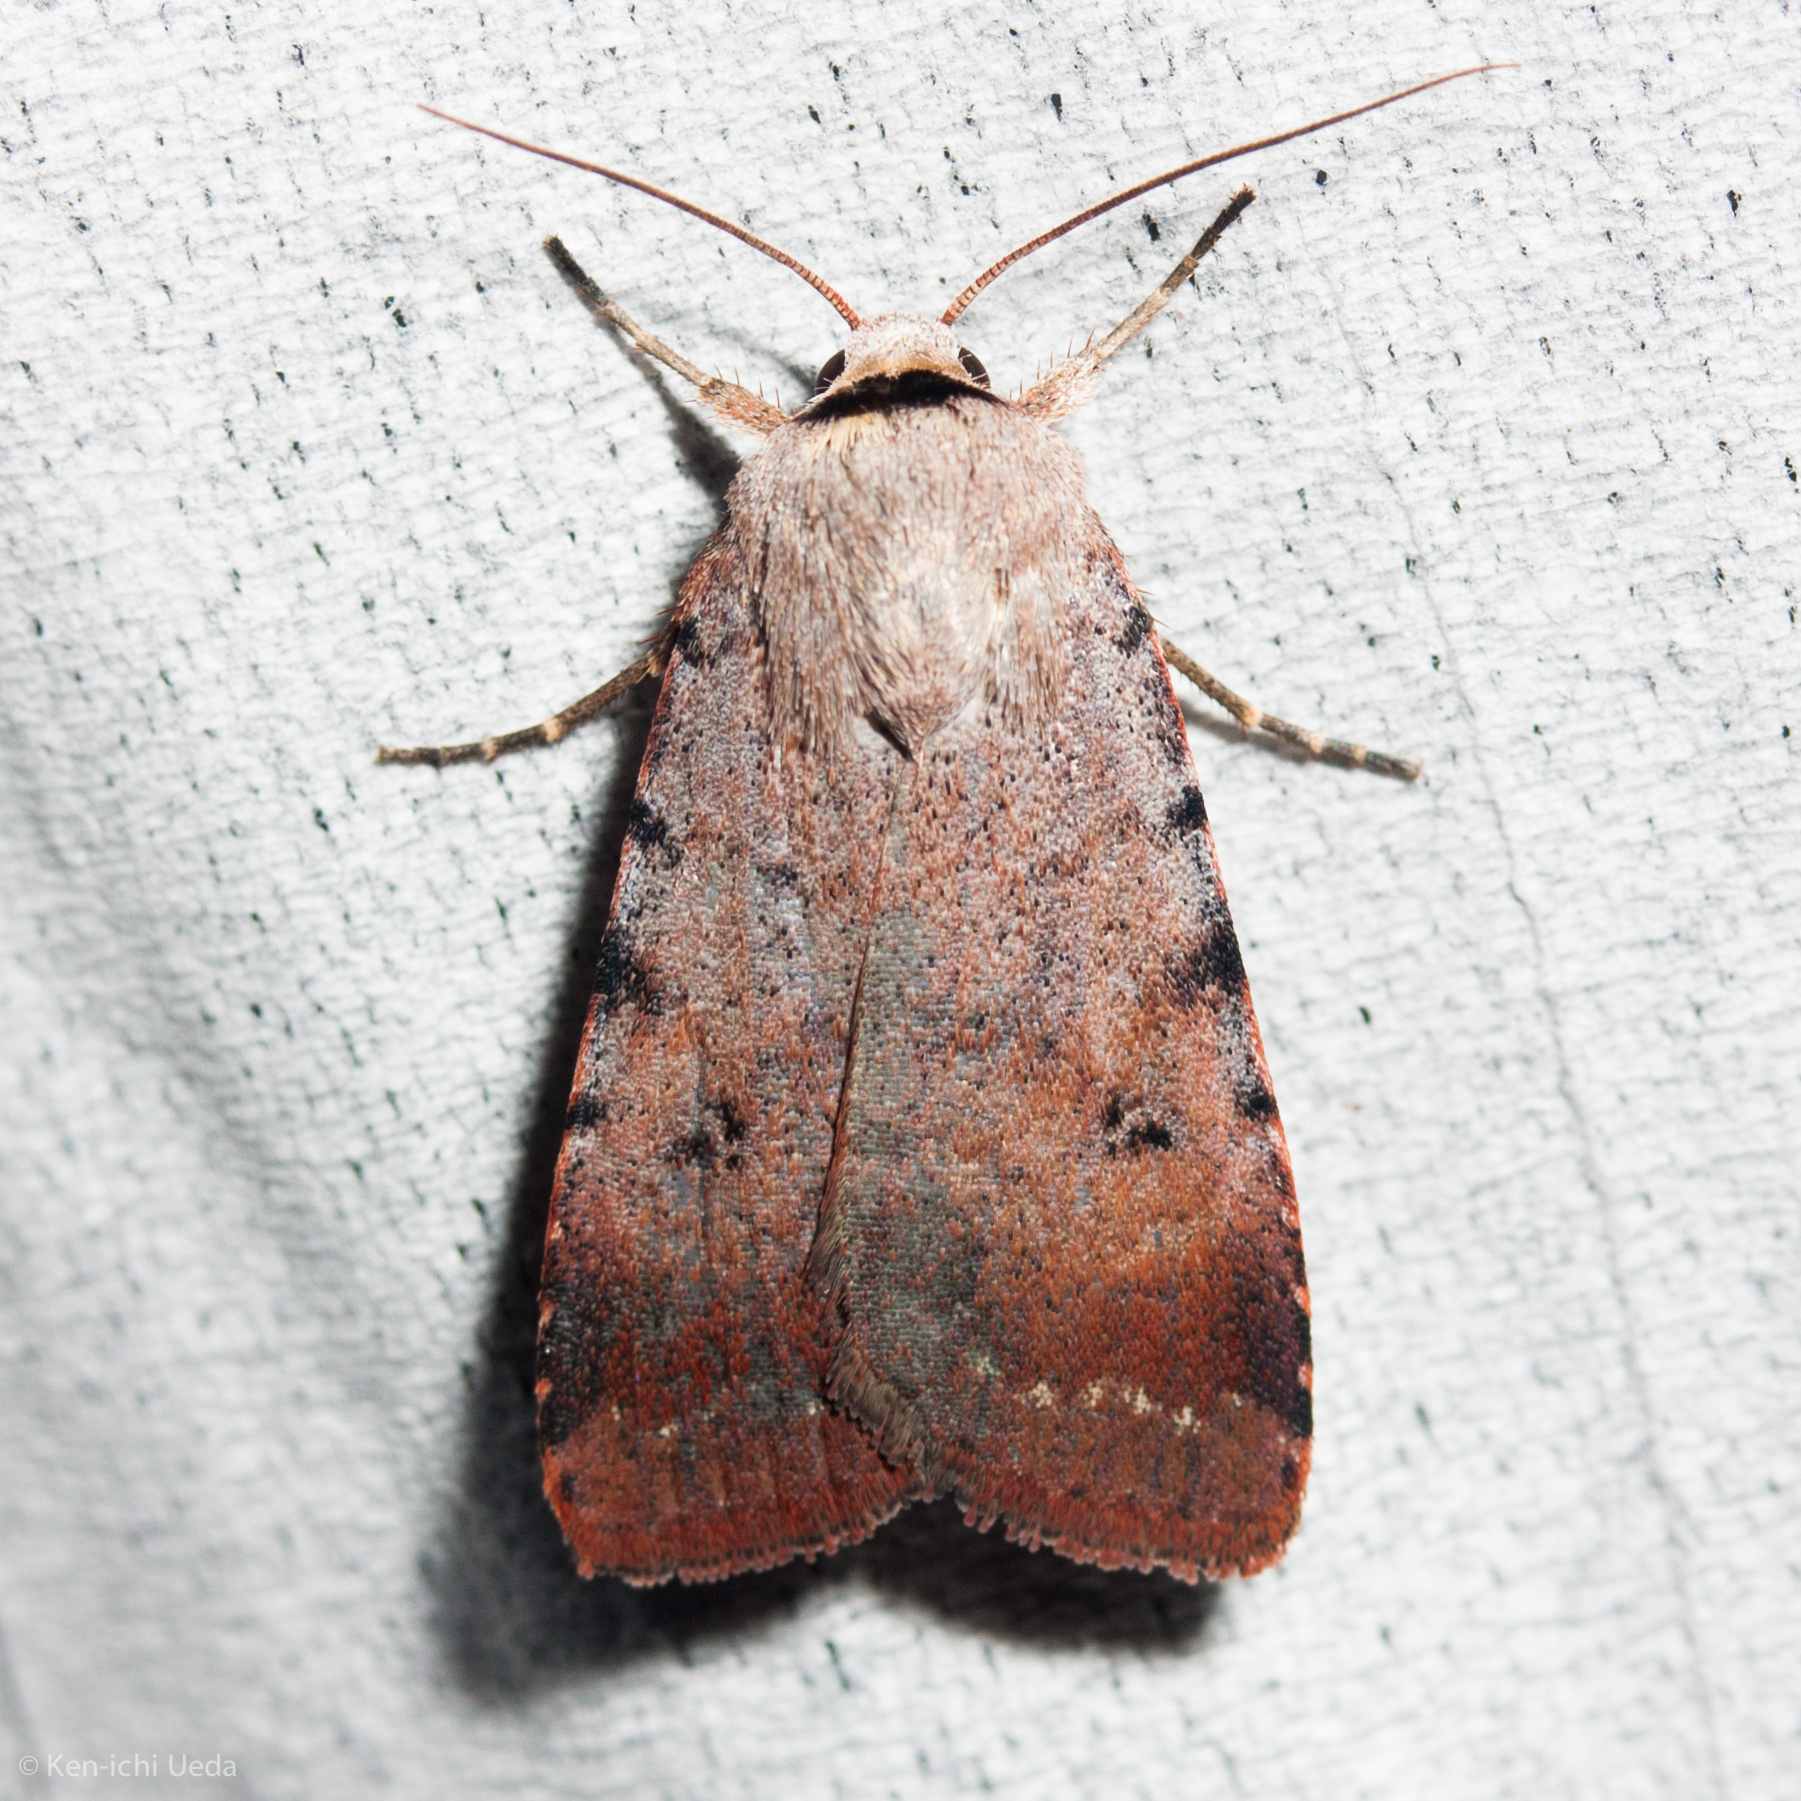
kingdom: Animalia
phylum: Arthropoda
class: Insecta
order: Lepidoptera
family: Noctuidae
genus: Anicla
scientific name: Anicla illapsa
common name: Snowy dart
